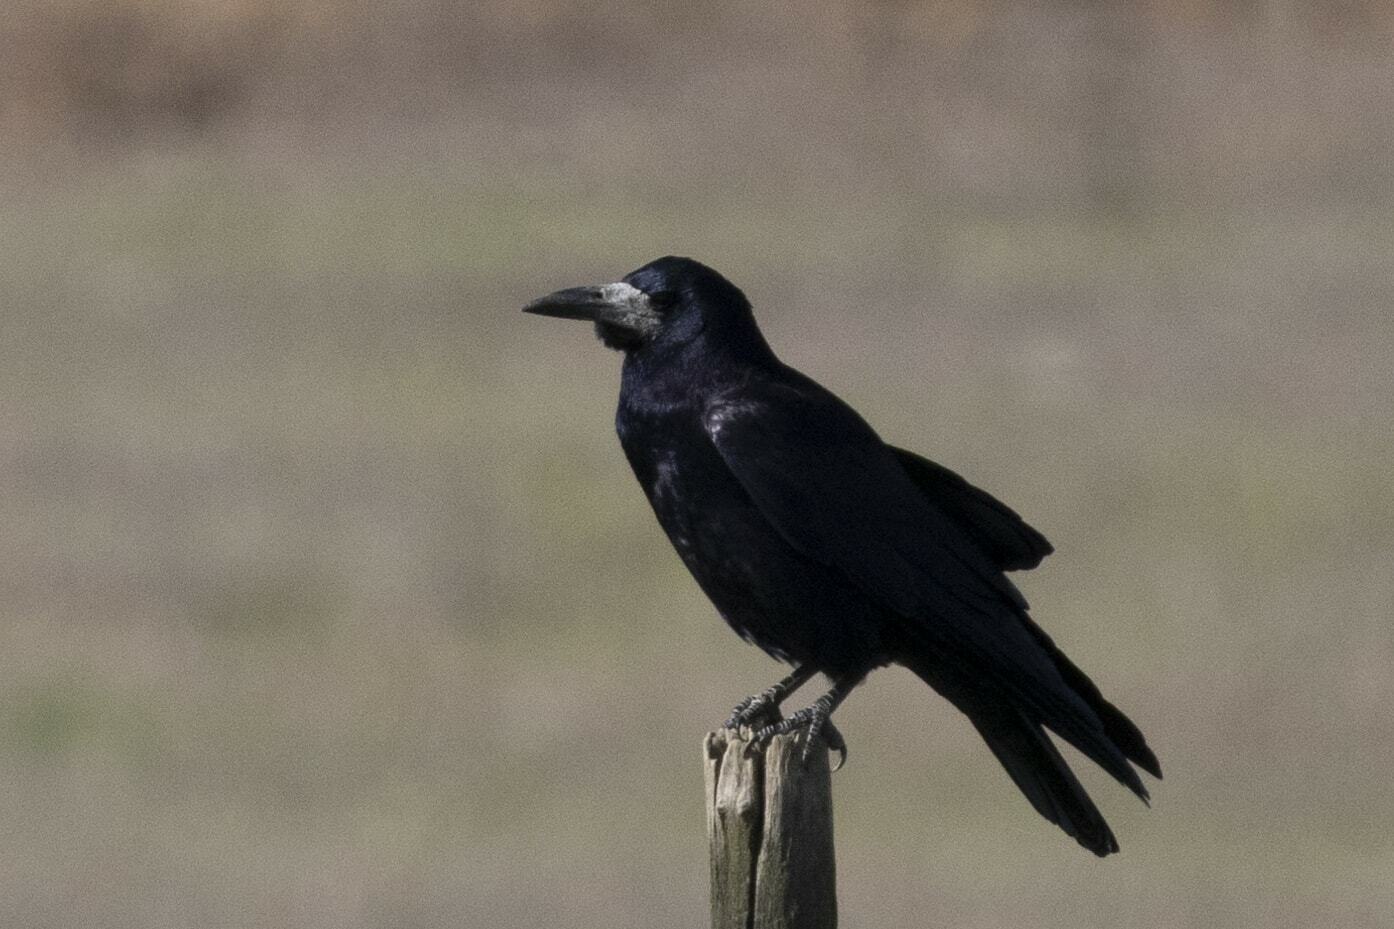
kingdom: Animalia
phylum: Chordata
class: Aves
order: Passeriformes
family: Corvidae
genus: Corvus
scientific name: Corvus frugilegus
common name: Rook
